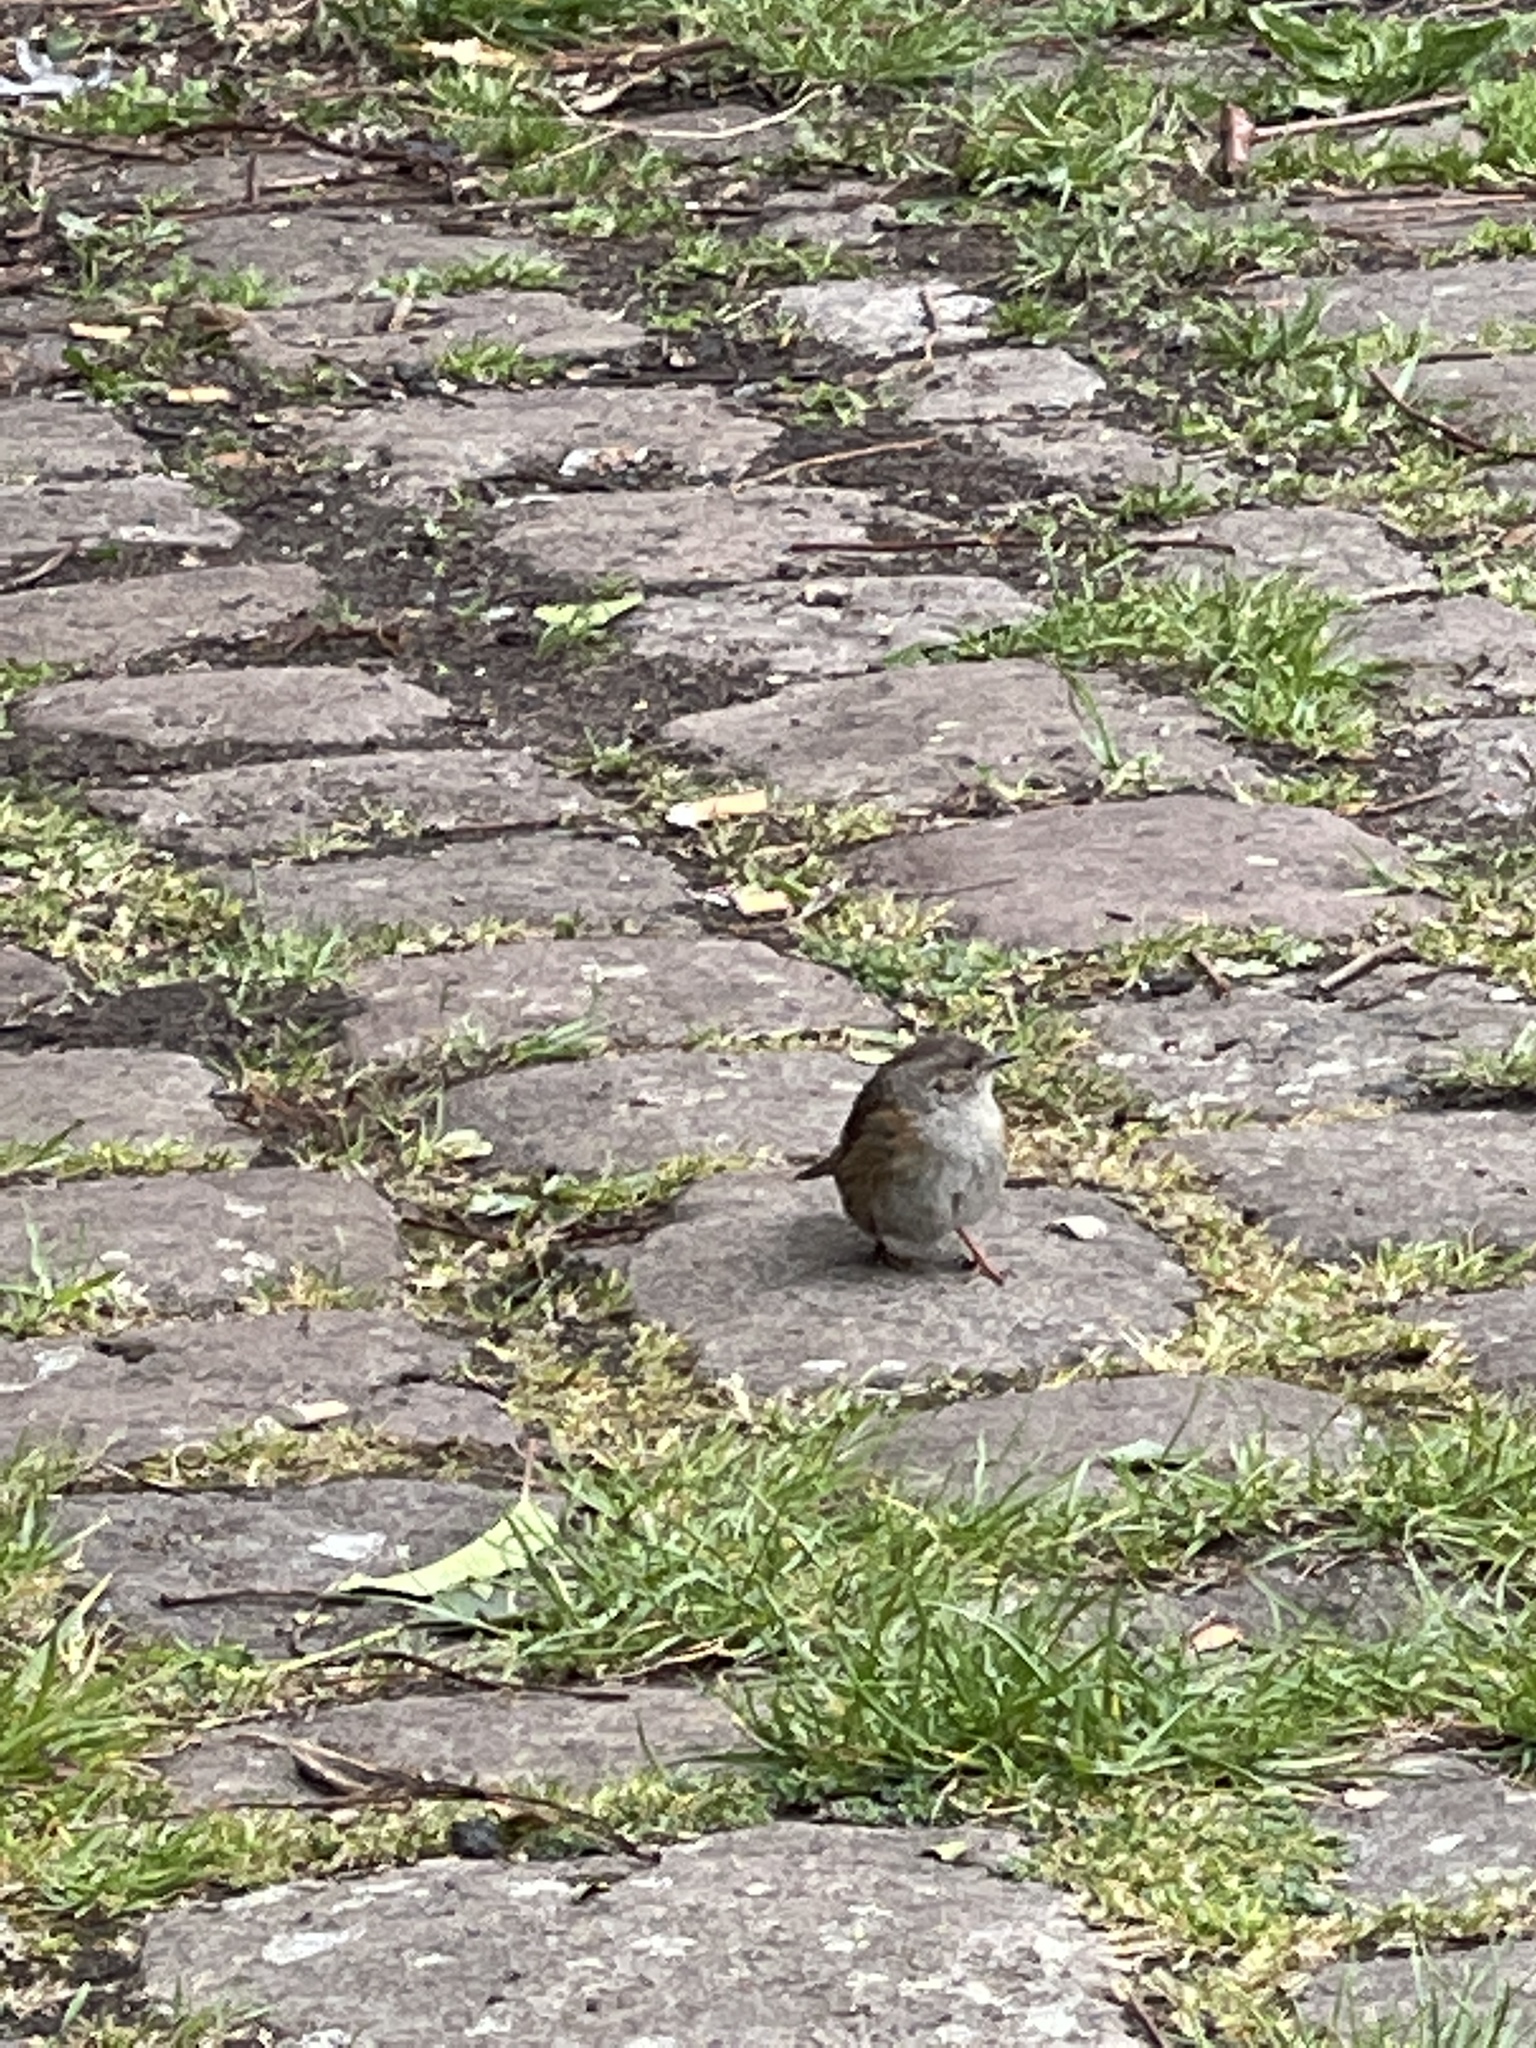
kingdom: Animalia
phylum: Chordata
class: Aves
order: Passeriformes
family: Prunellidae
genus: Prunella
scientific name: Prunella modularis
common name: Dunnock
